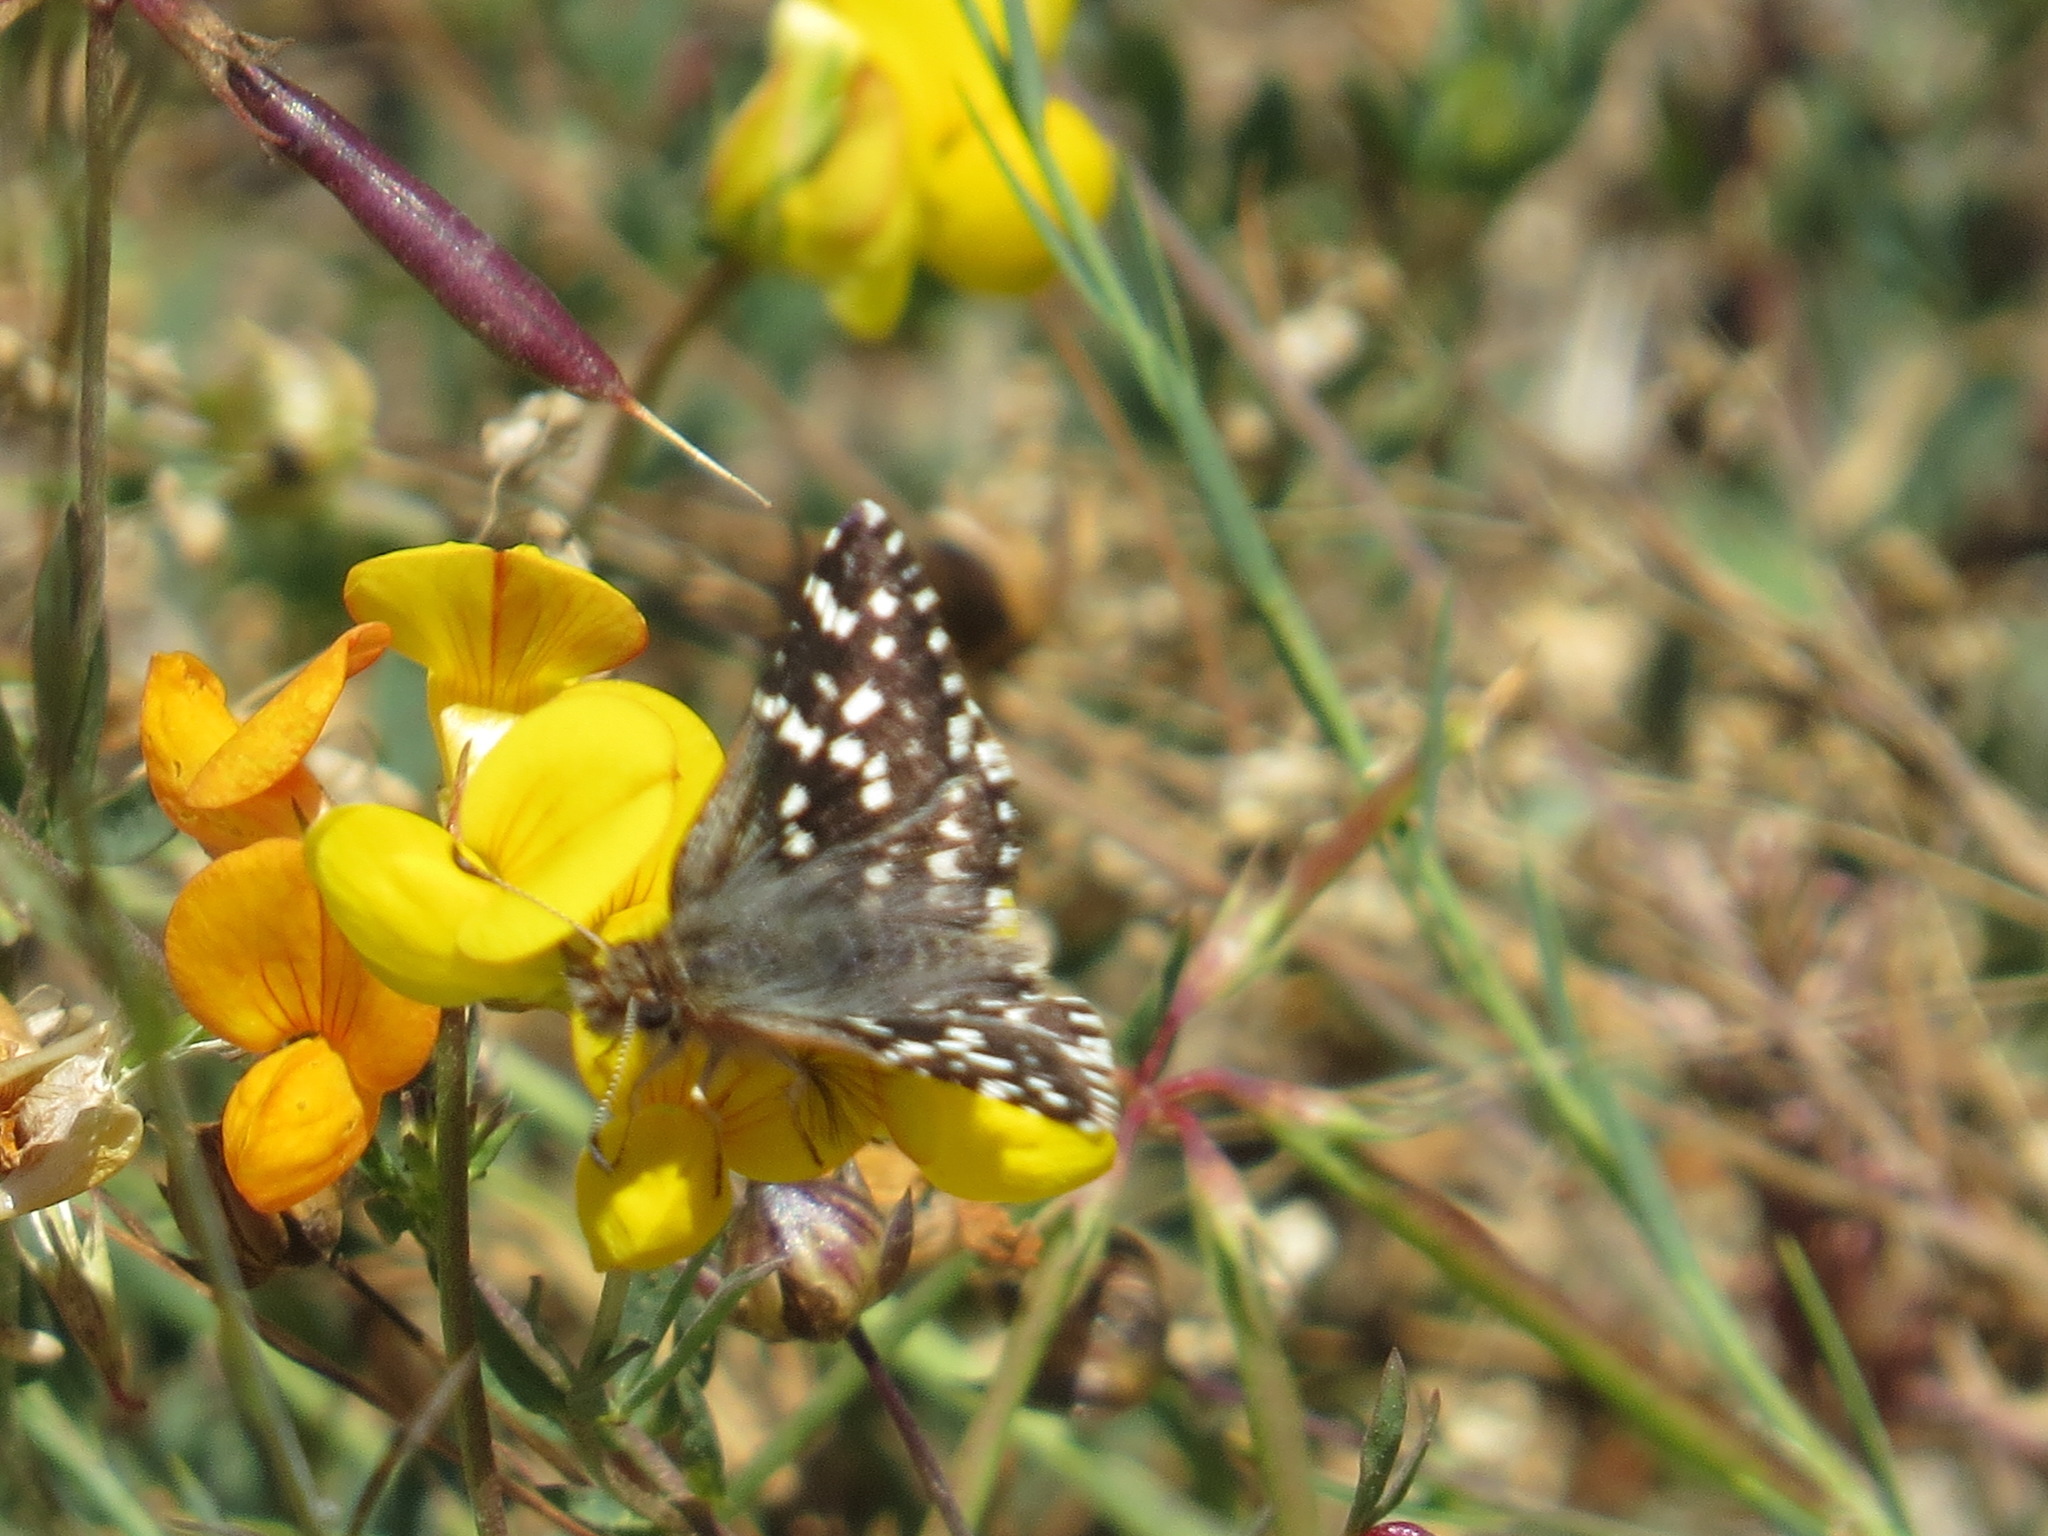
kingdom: Animalia
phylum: Arthropoda
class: Insecta
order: Lepidoptera
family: Hesperiidae
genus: Pyrgus
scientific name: Pyrgus ruralis
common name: Two-banded checkered-skipper
